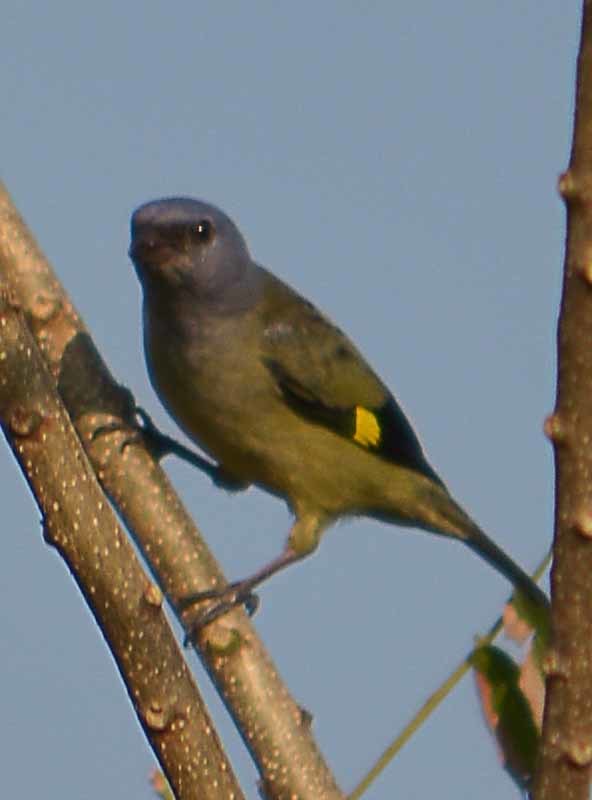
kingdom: Animalia
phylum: Chordata
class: Aves
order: Passeriformes
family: Thraupidae
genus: Thraupis
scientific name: Thraupis abbas
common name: Yellow-winged tanager
